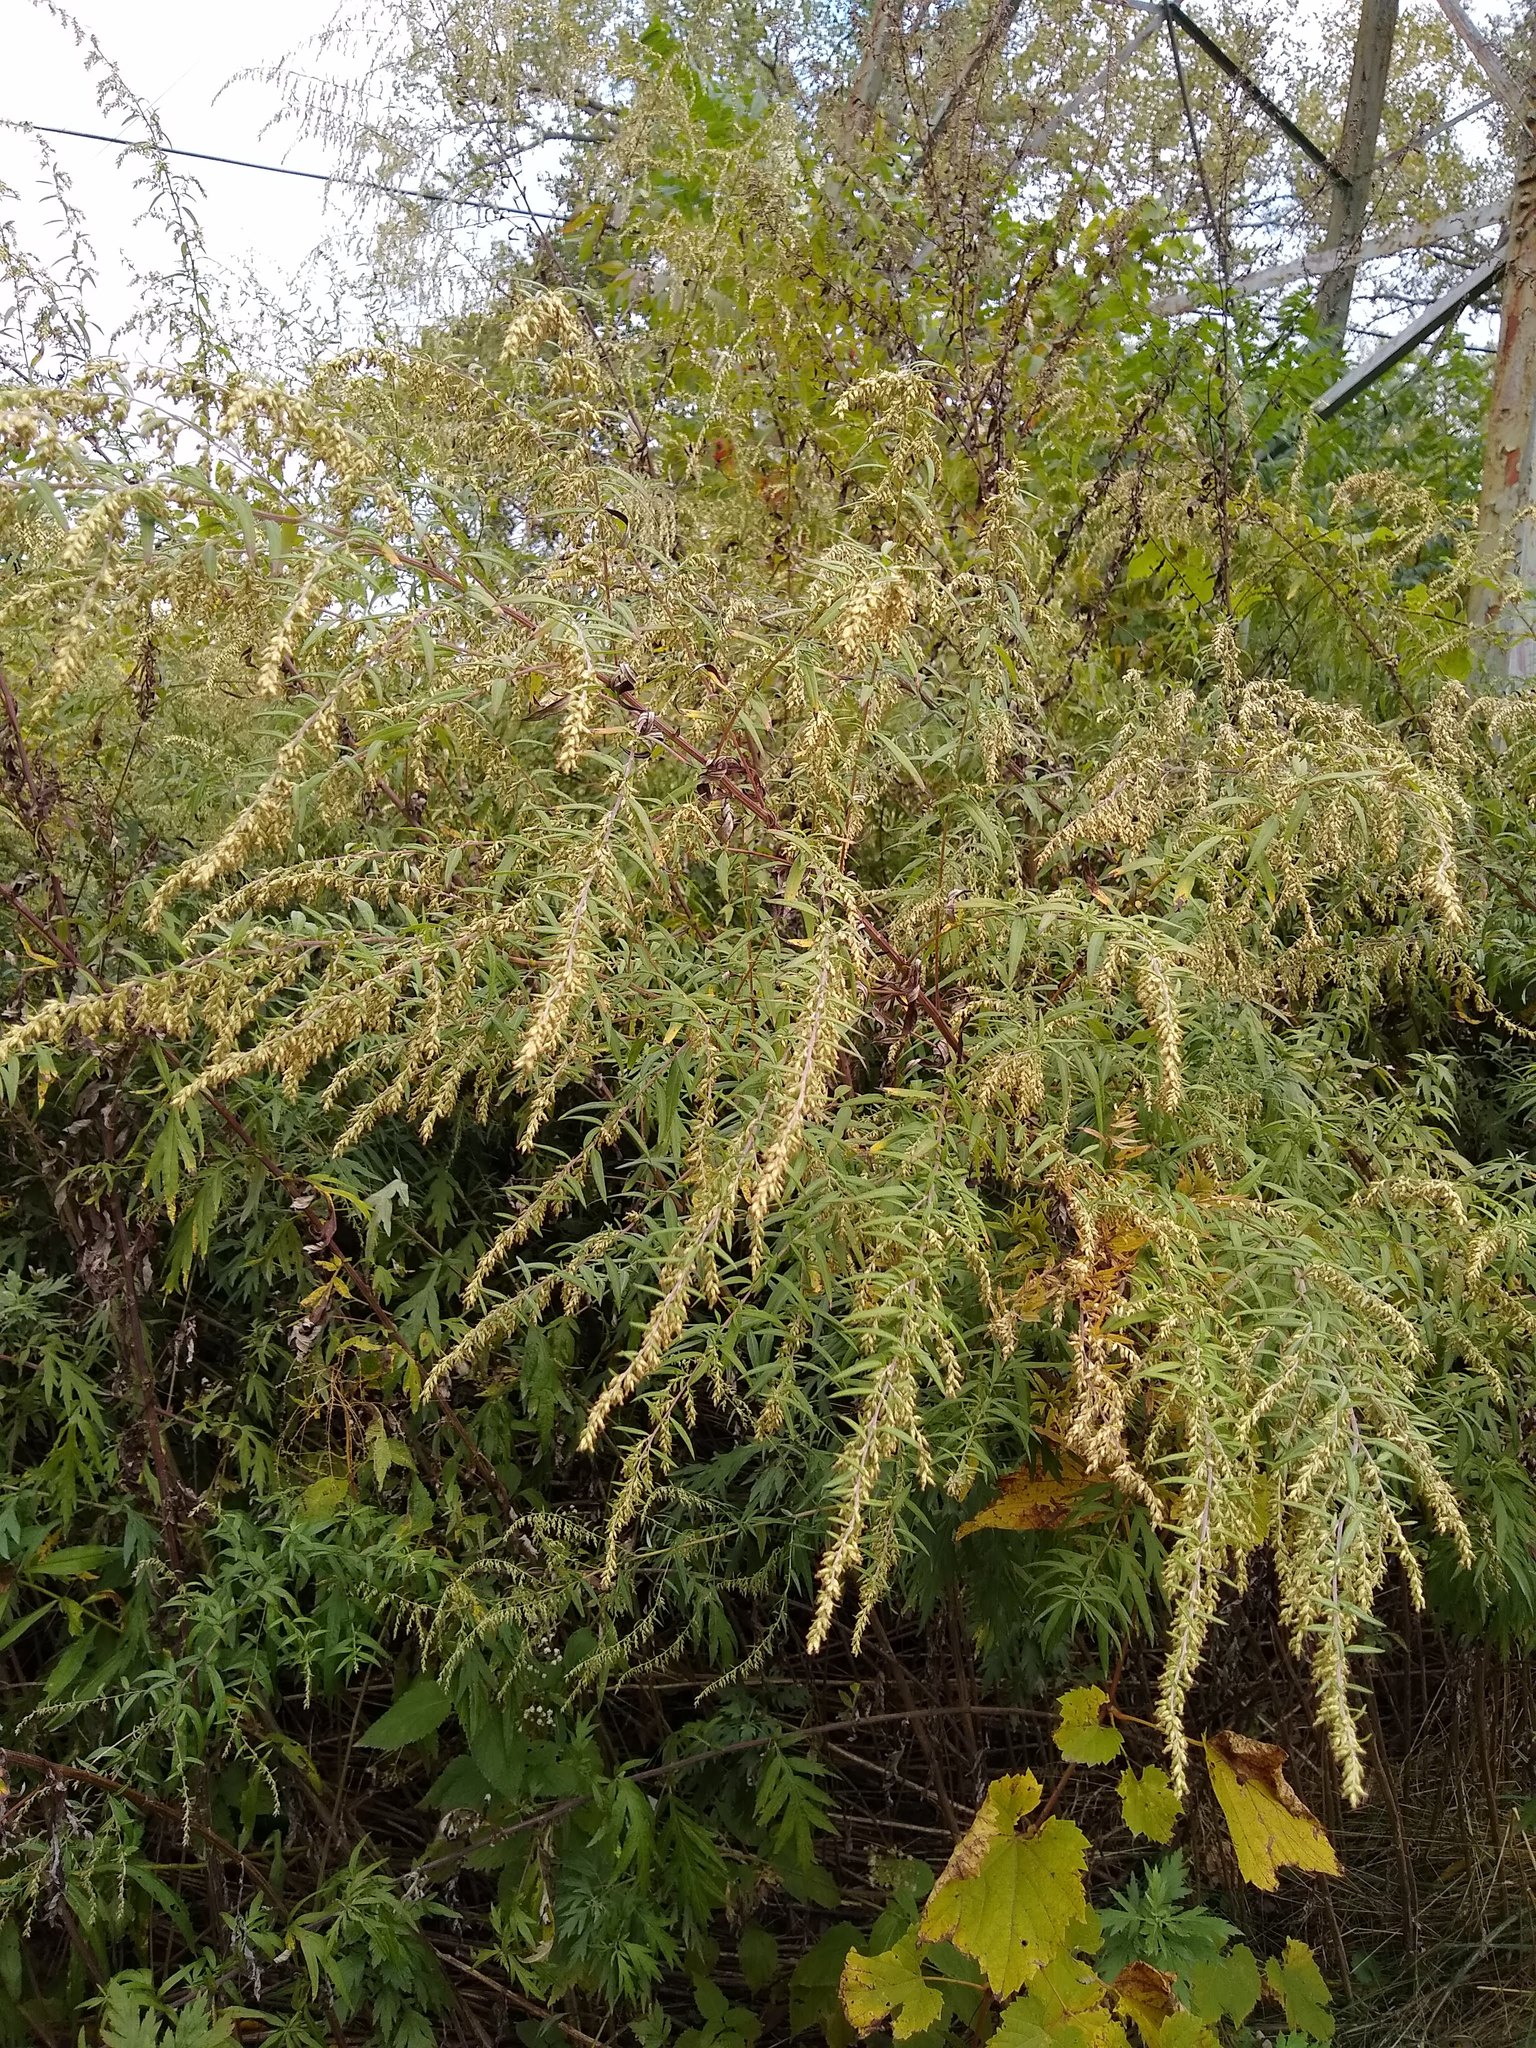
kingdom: Plantae
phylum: Tracheophyta
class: Magnoliopsida
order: Asterales
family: Asteraceae
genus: Artemisia
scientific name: Artemisia vulgaris
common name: Mugwort
